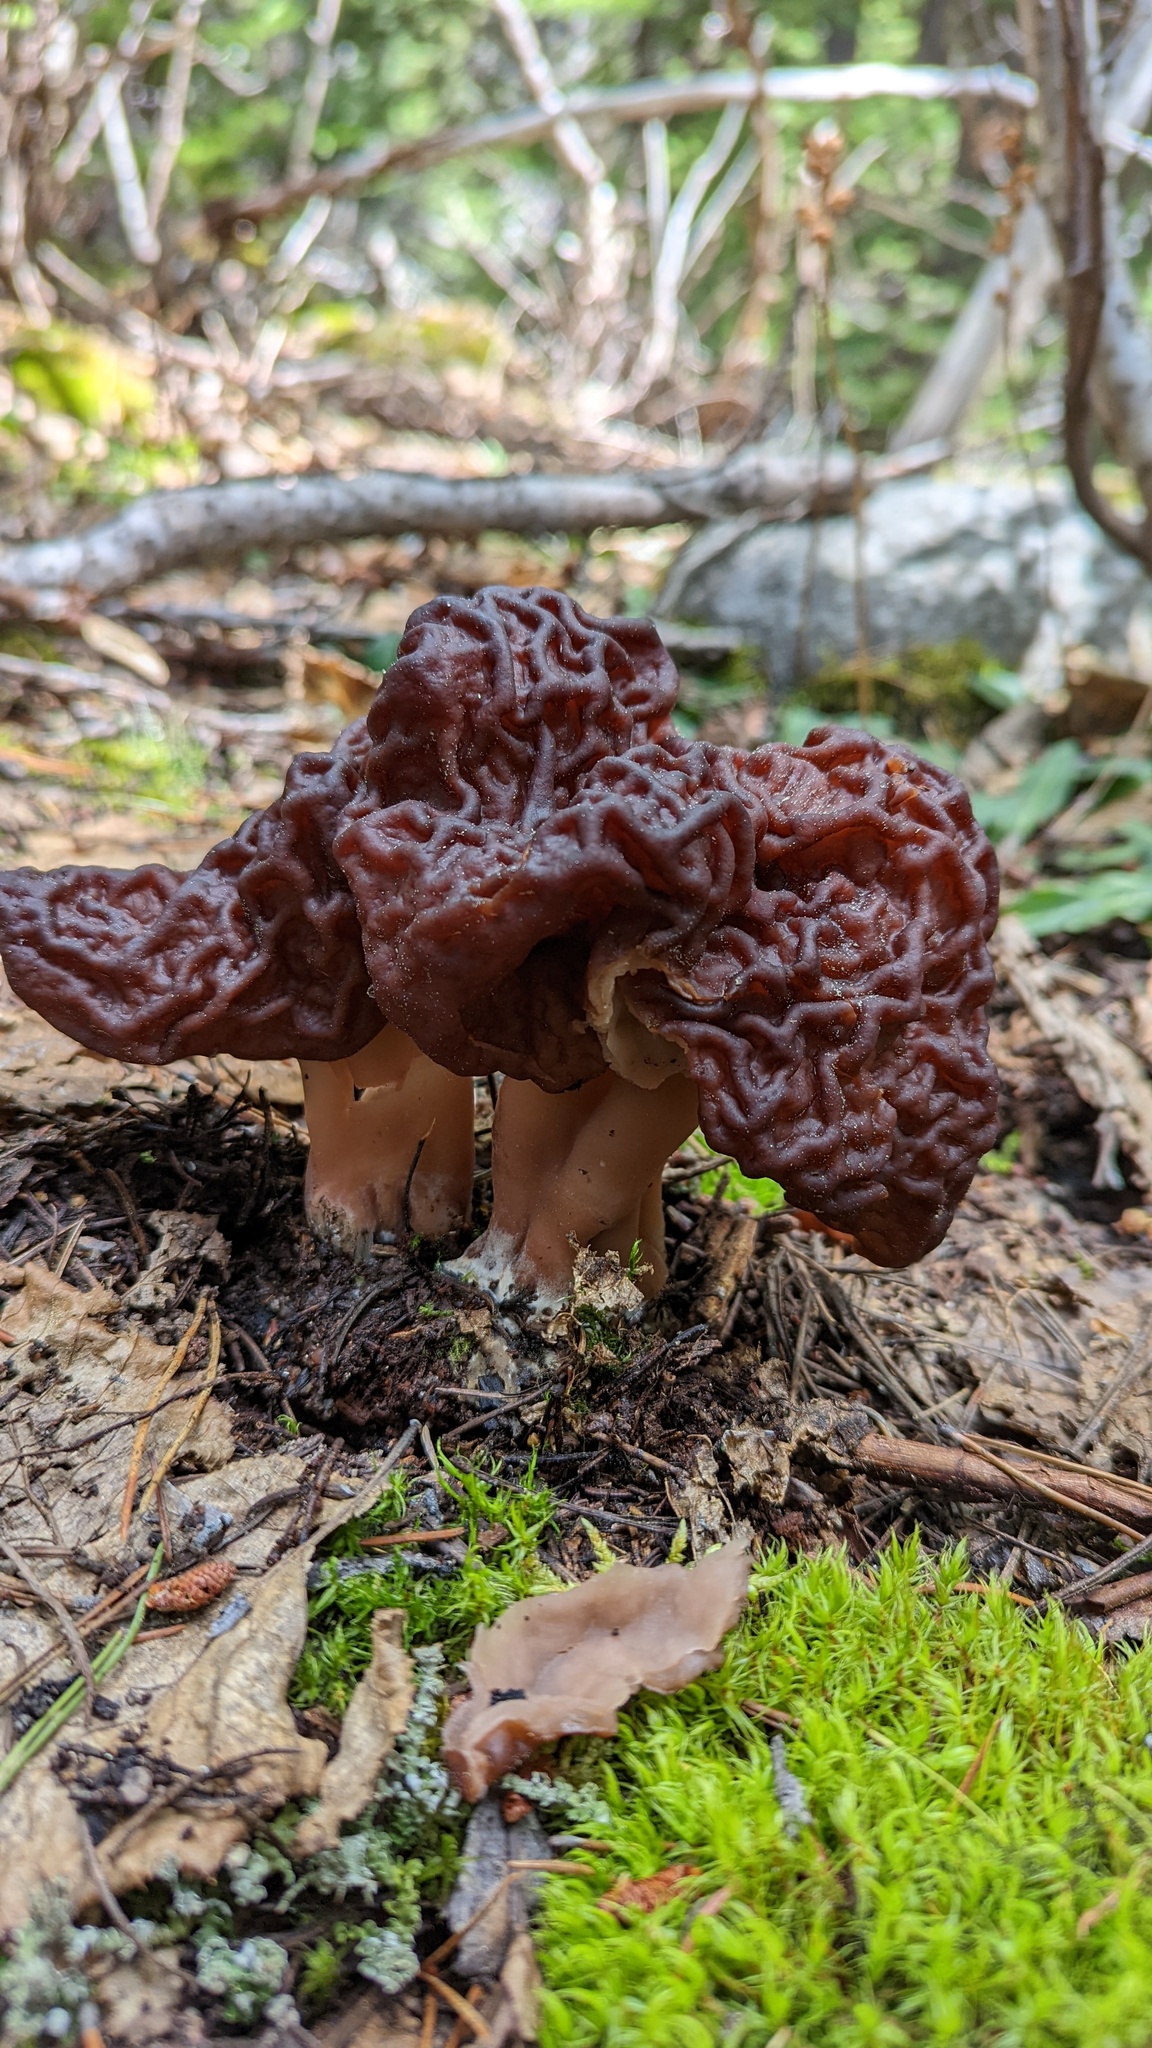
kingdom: Fungi
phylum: Ascomycota
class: Pezizomycetes
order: Pezizales
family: Discinaceae
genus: Gyromitra
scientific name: Gyromitra esculenta
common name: False morel
